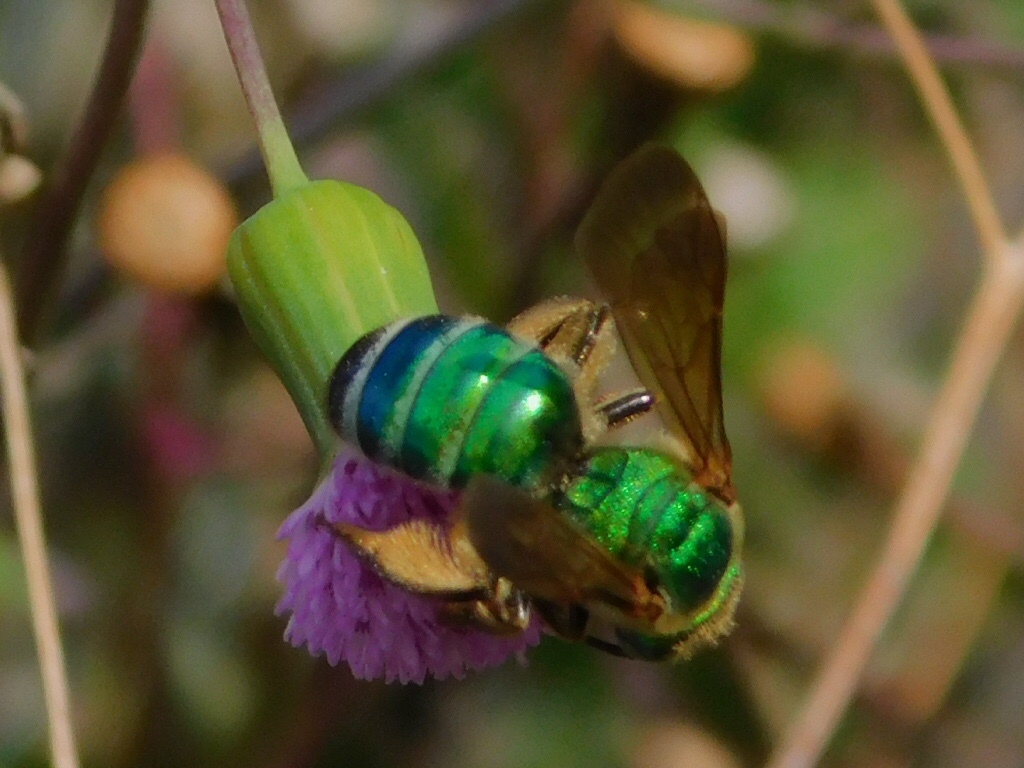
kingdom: Animalia
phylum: Arthropoda
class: Insecta
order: Hymenoptera
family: Halictidae
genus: Agapostemon
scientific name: Agapostemon splendens
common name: Brown-winged striped sweat bee
